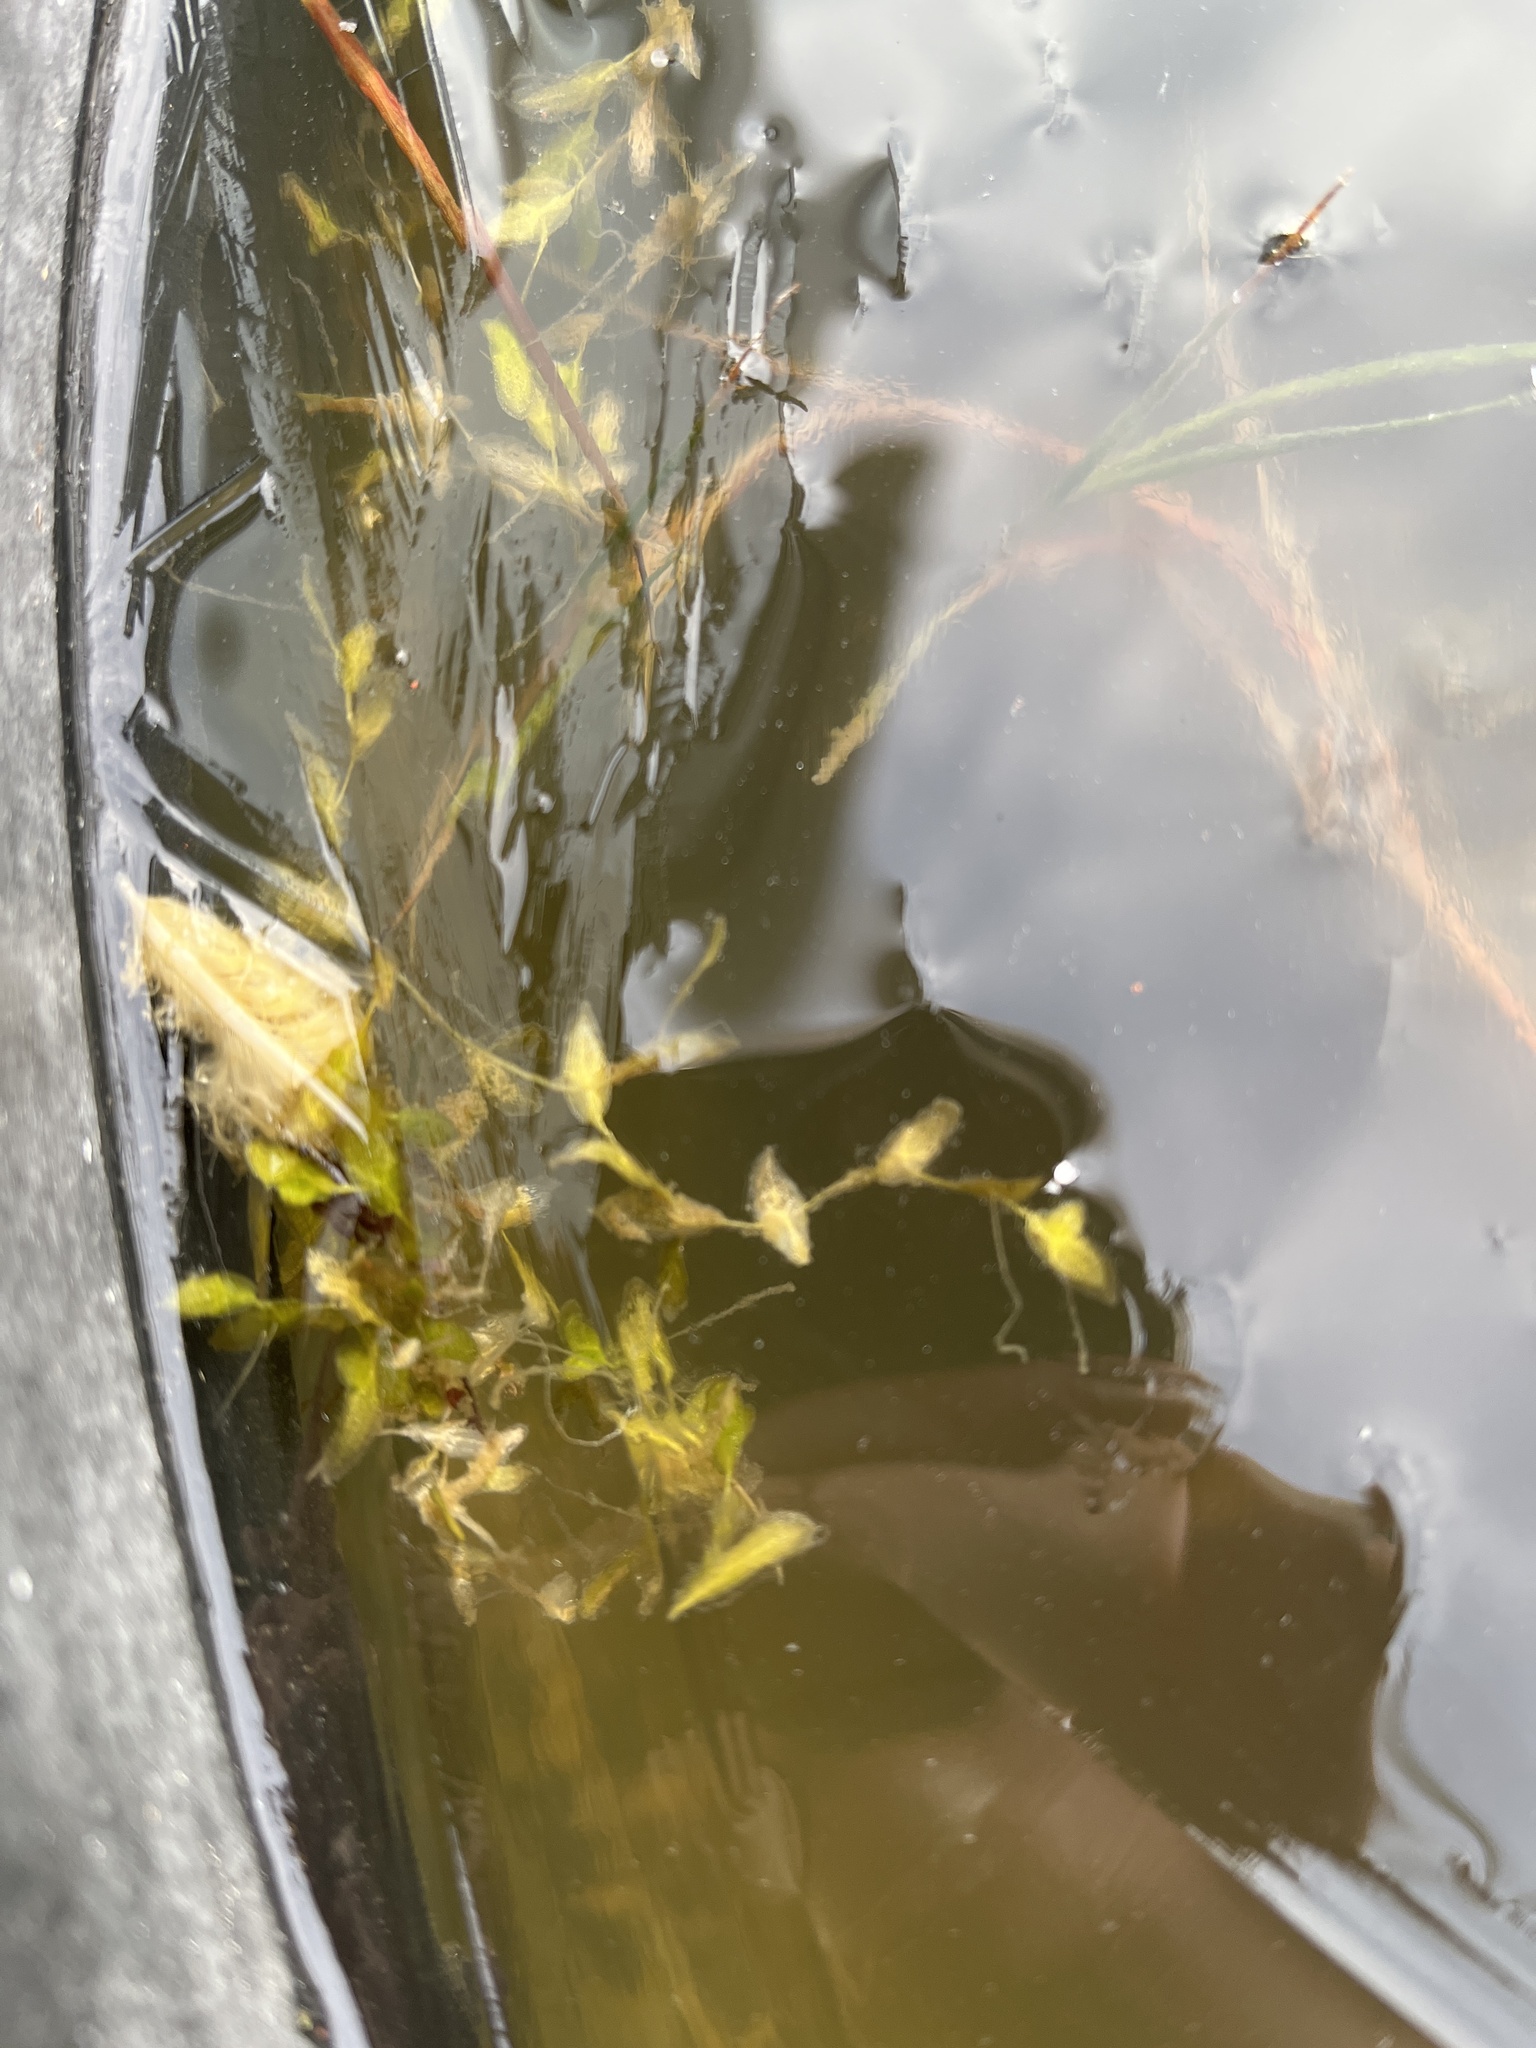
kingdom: Plantae
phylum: Tracheophyta
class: Liliopsida
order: Alismatales
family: Araceae
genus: Lemna
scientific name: Lemna trisulca
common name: Ivy-leaved duckweed
